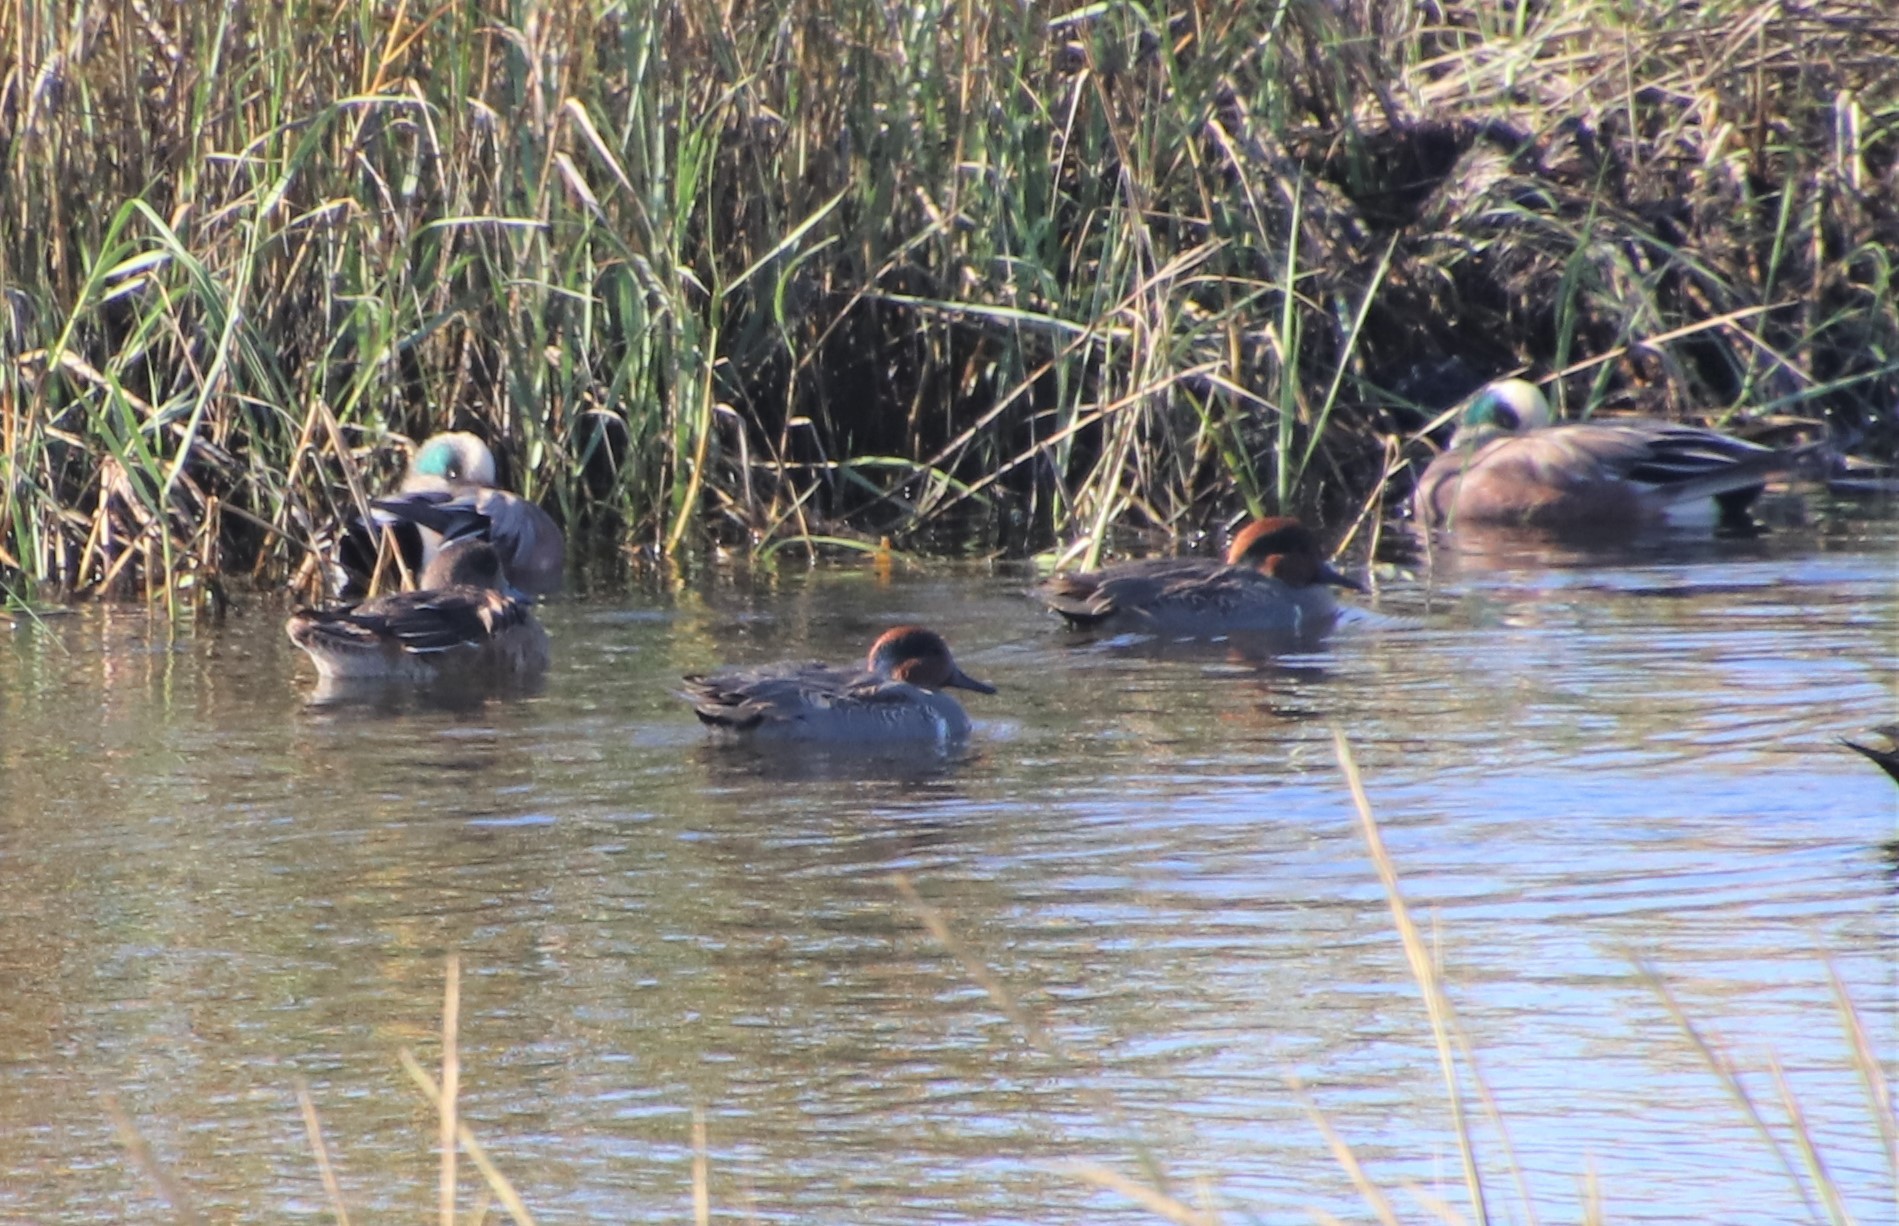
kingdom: Animalia
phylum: Chordata
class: Aves
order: Anseriformes
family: Anatidae
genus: Anas
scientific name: Anas crecca
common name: Eurasian teal
